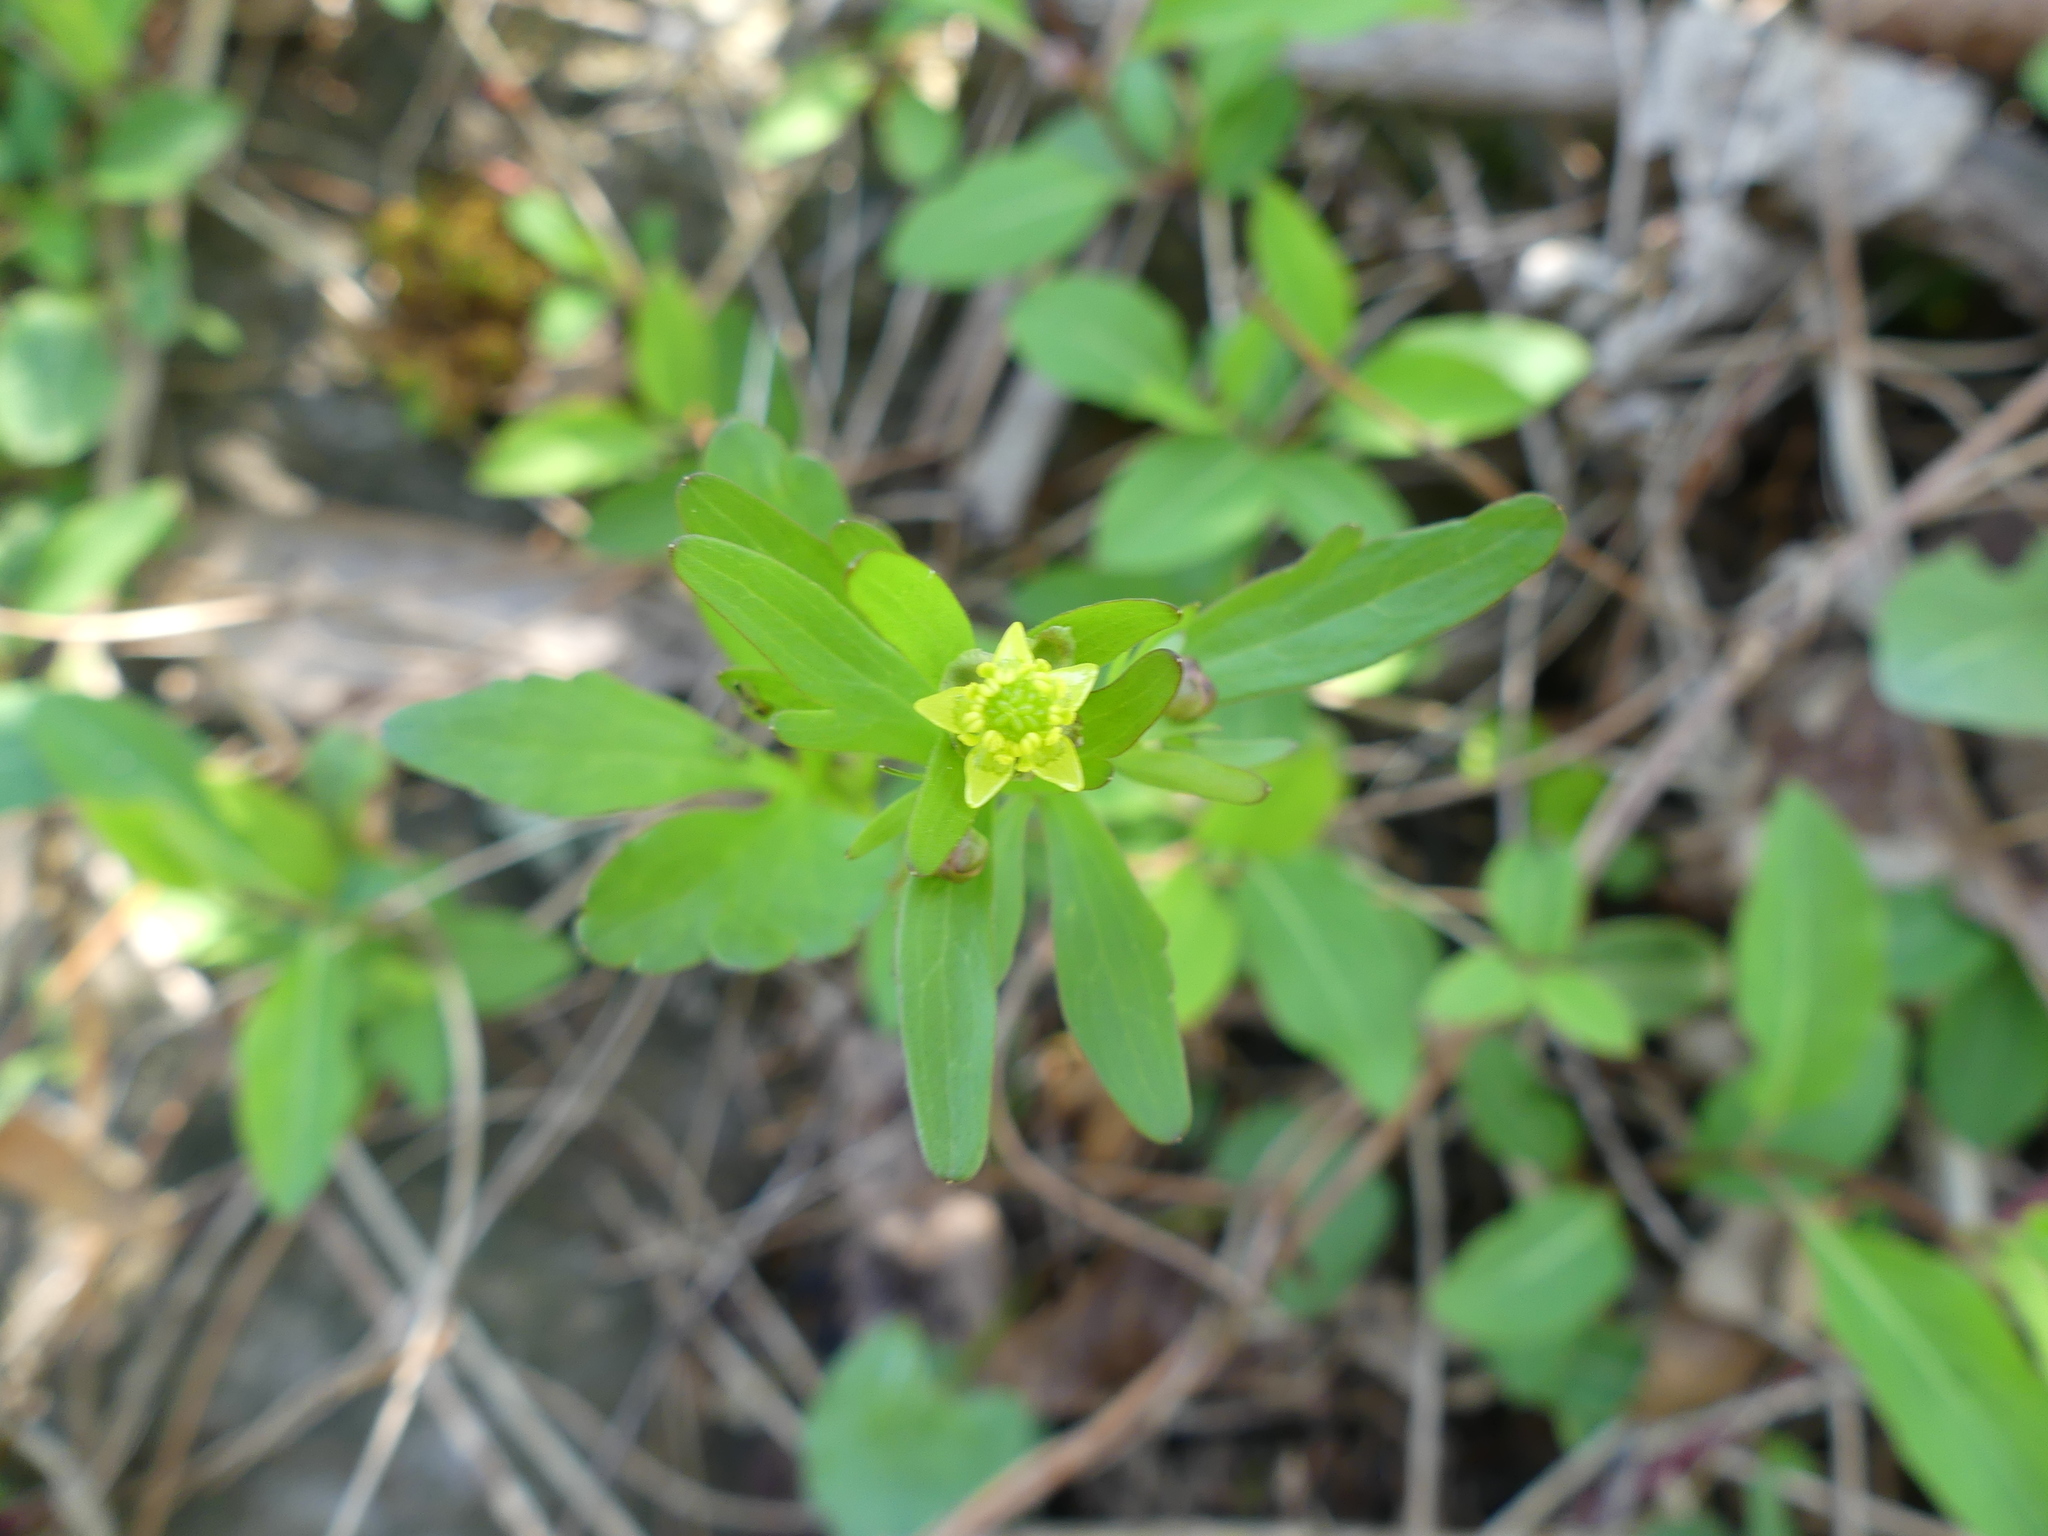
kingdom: Plantae
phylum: Tracheophyta
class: Magnoliopsida
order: Ranunculales
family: Ranunculaceae
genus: Ranunculus
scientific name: Ranunculus abortivus
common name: Early wood buttercup
